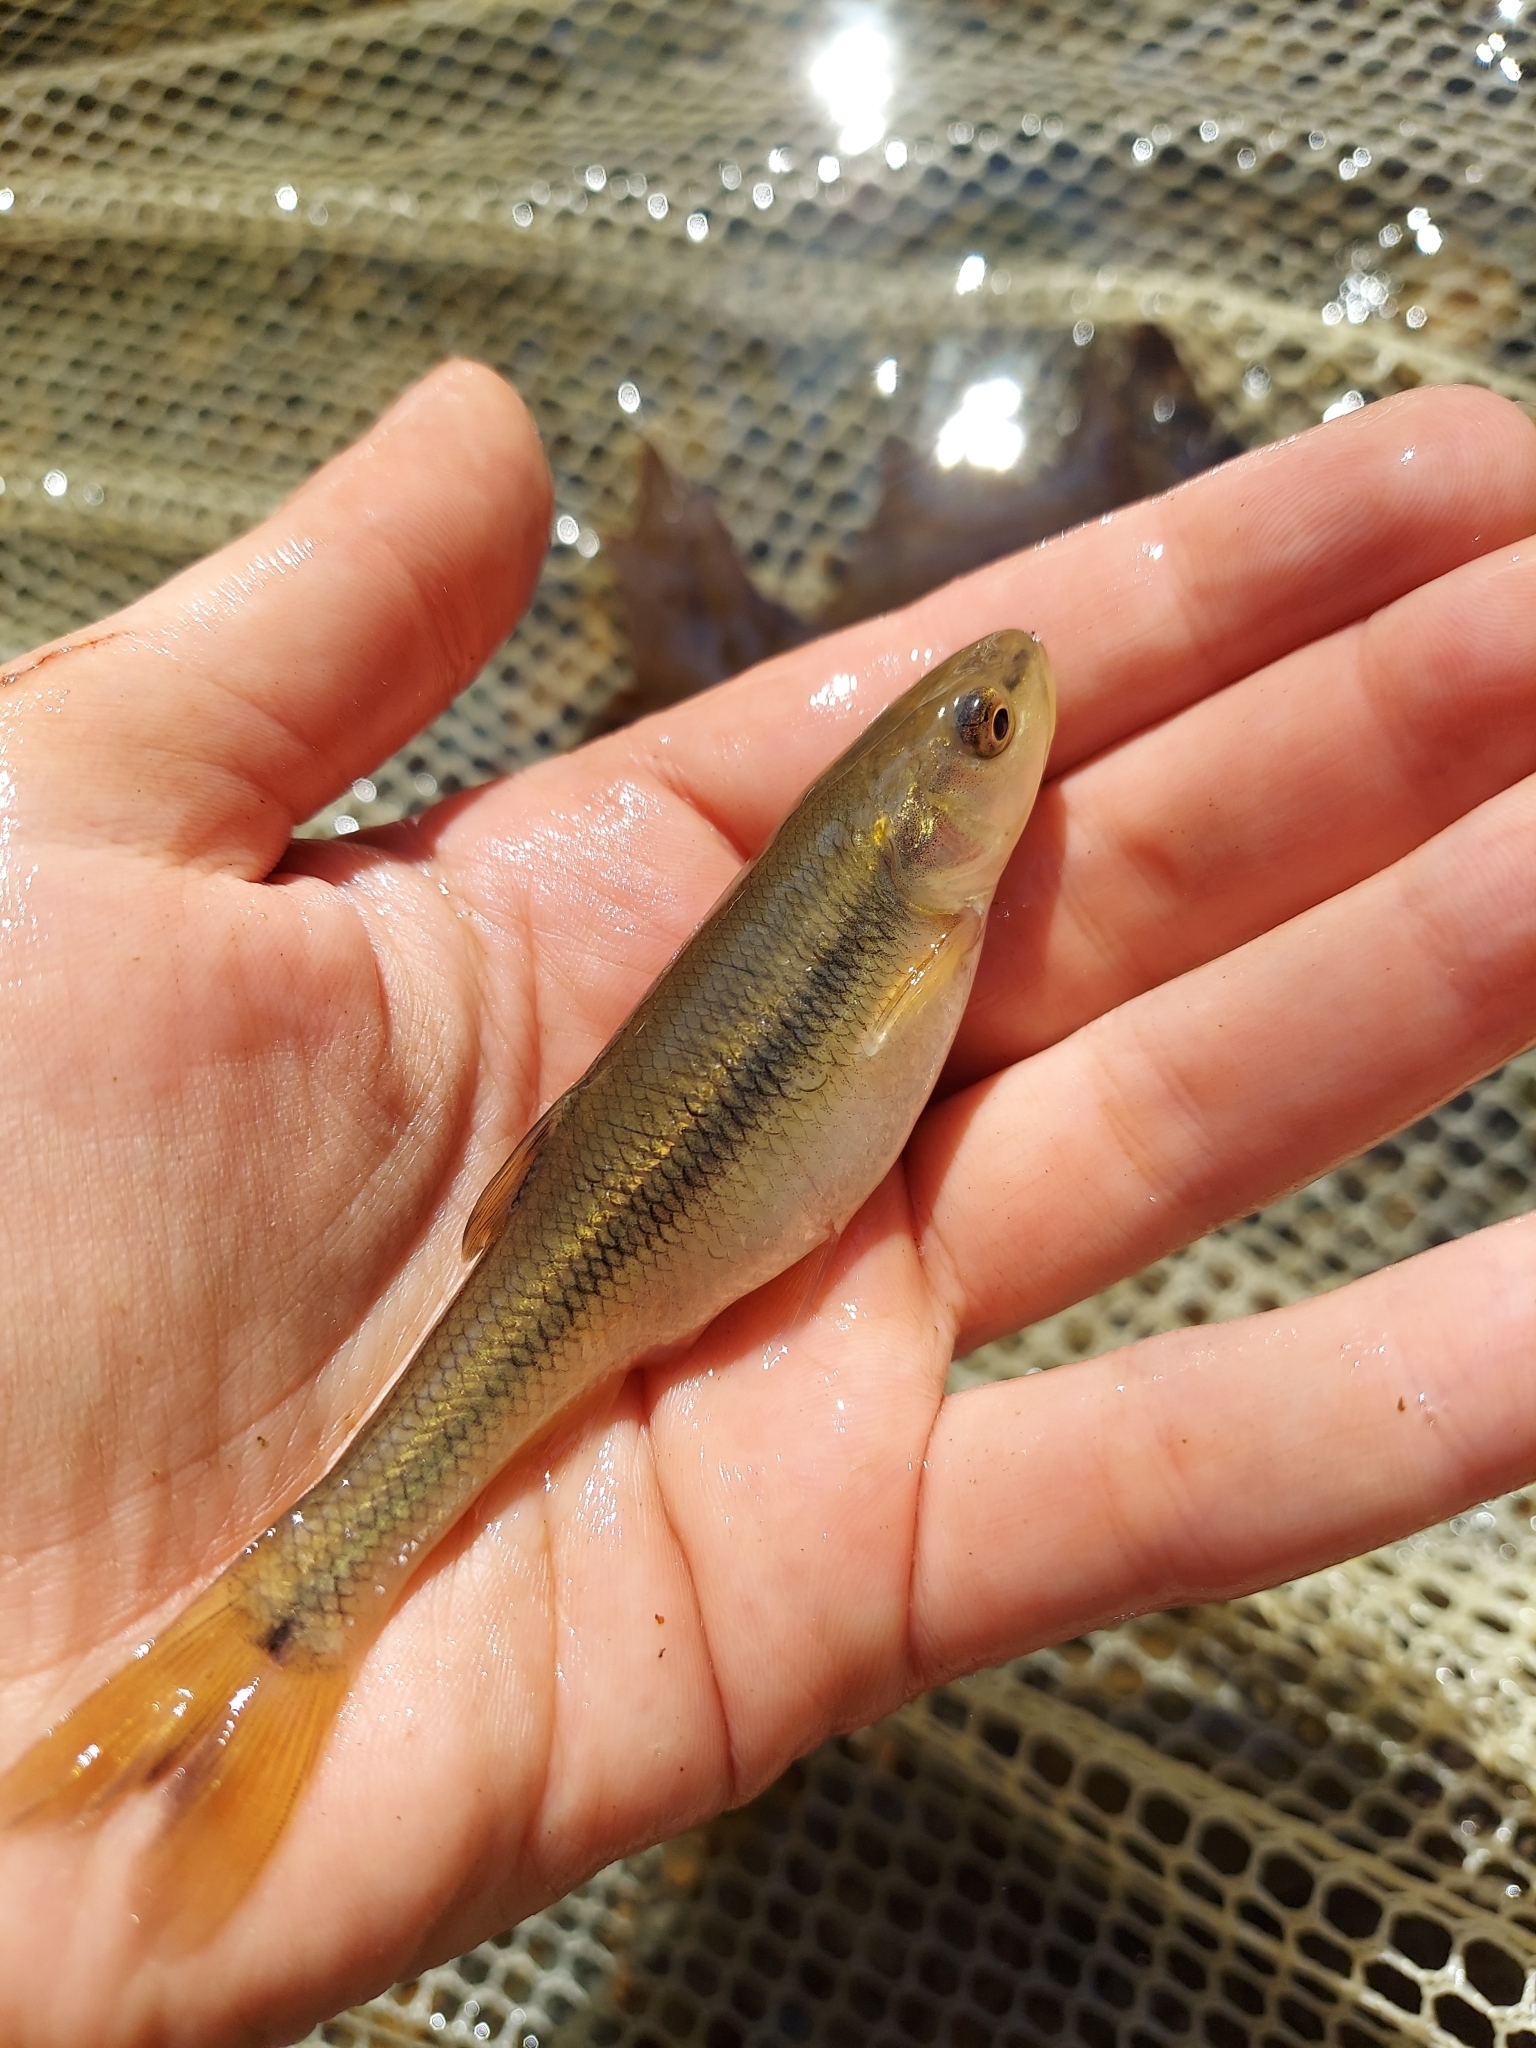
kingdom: Animalia
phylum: Chordata
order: Cypriniformes
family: Cyprinidae
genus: Semotilus
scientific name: Semotilus atromaculatus
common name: Creek chub
